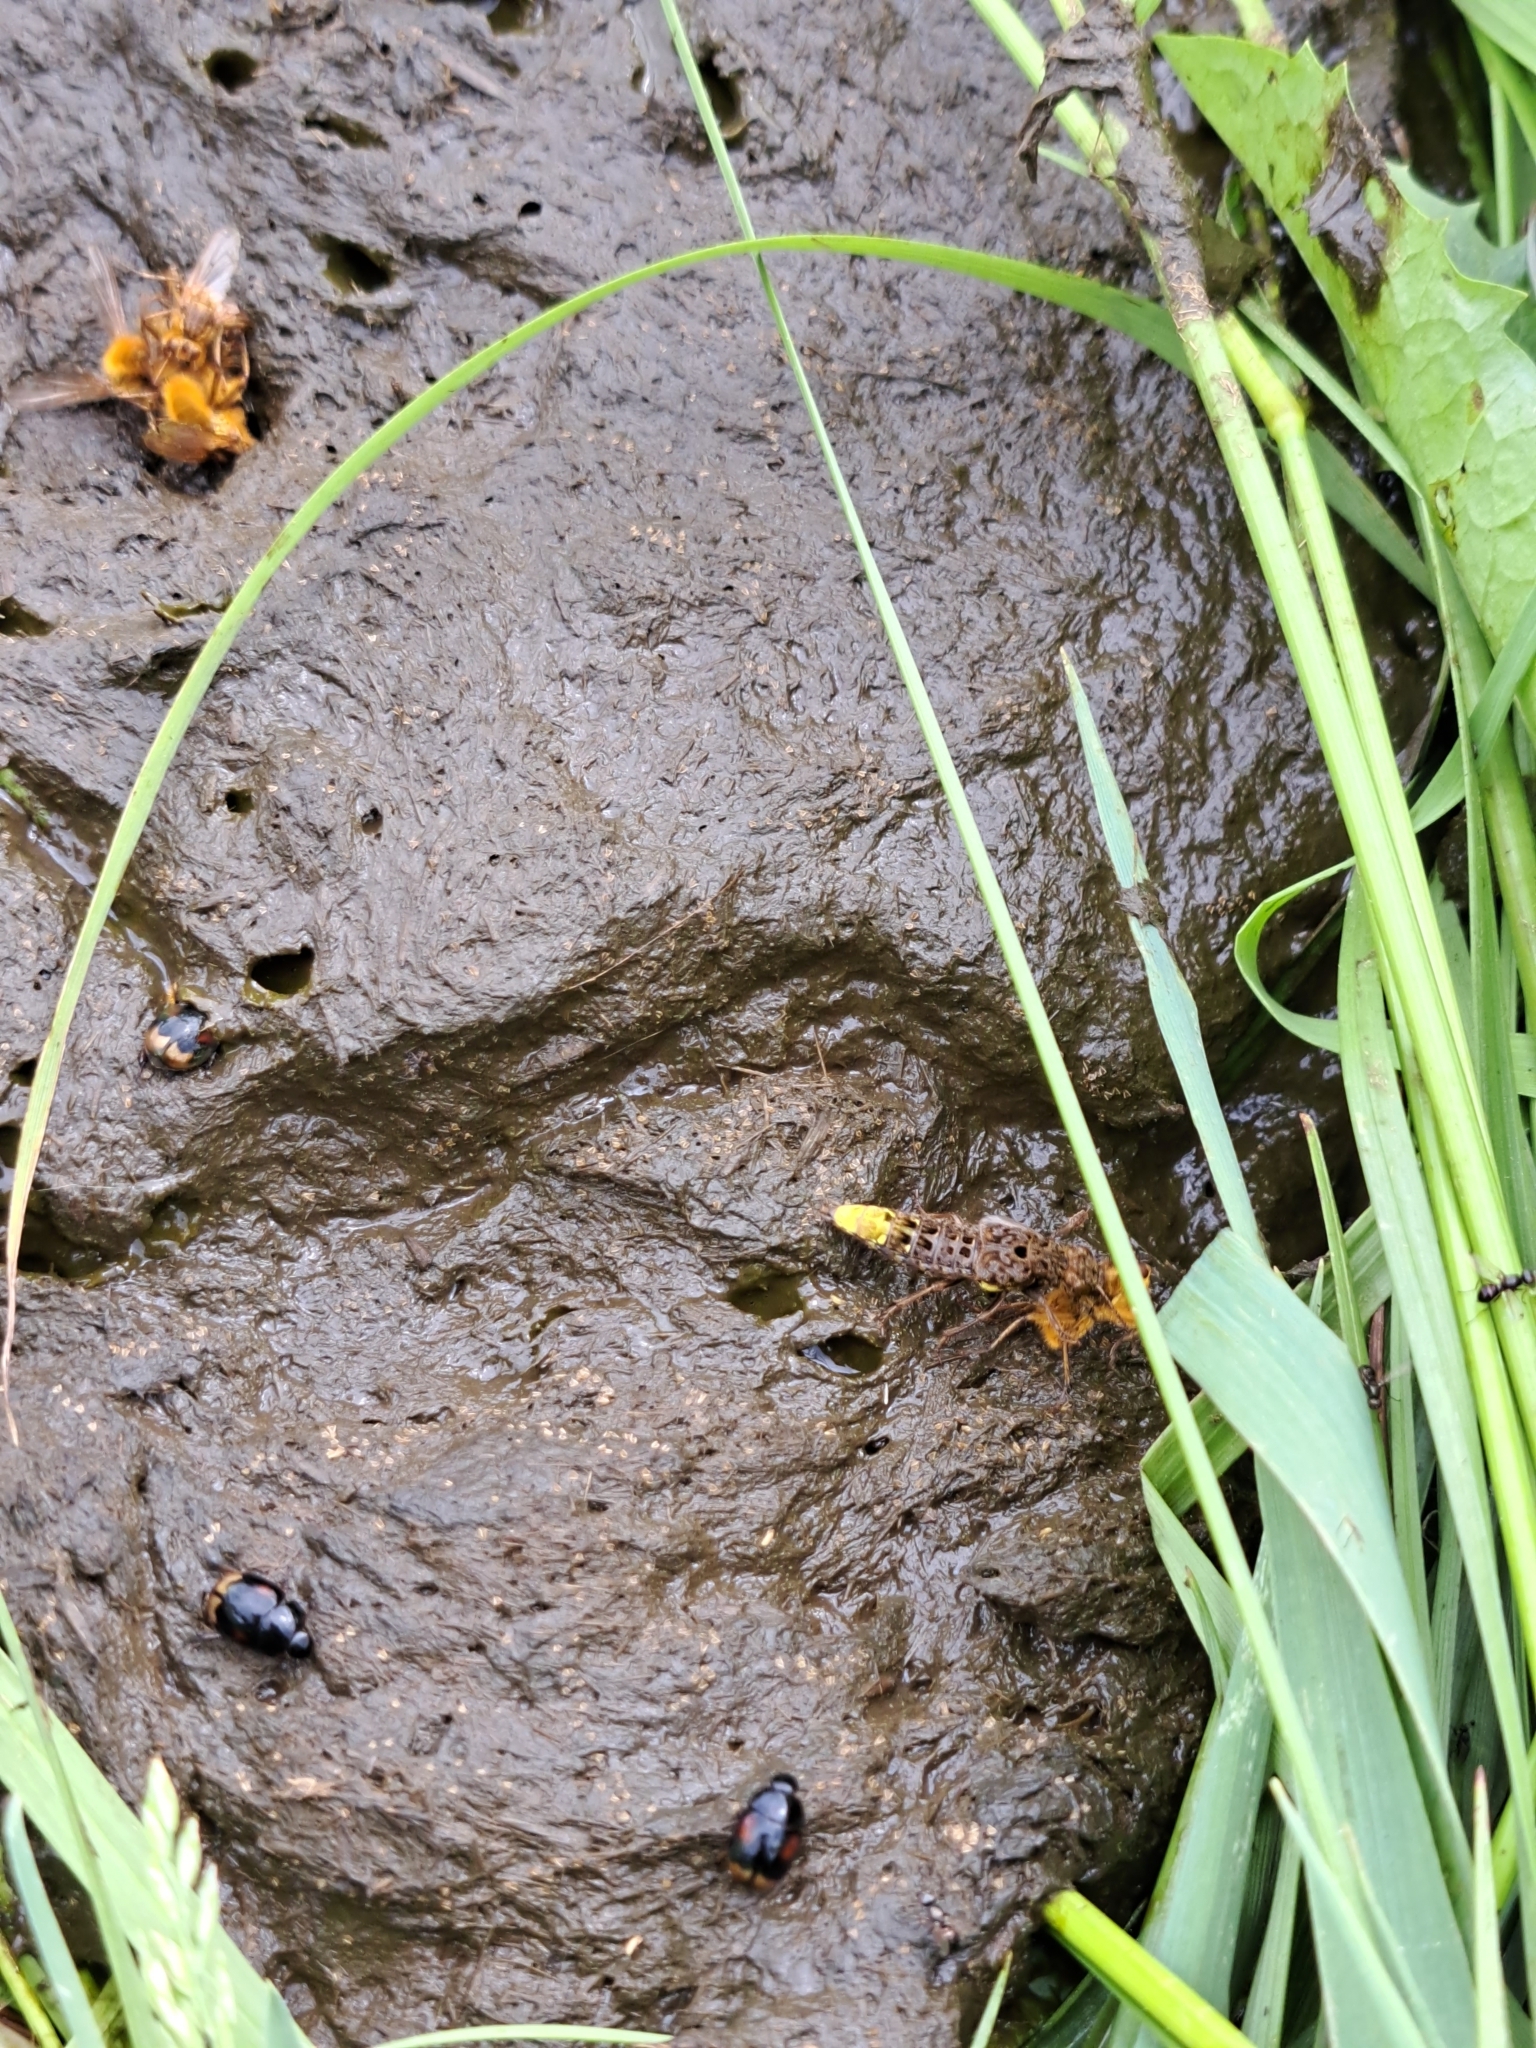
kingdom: Animalia
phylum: Arthropoda
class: Insecta
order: Coleoptera
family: Staphylinidae
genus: Ontholestes
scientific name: Ontholestes cingulatus
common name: Gold-and-brown rove beetle
